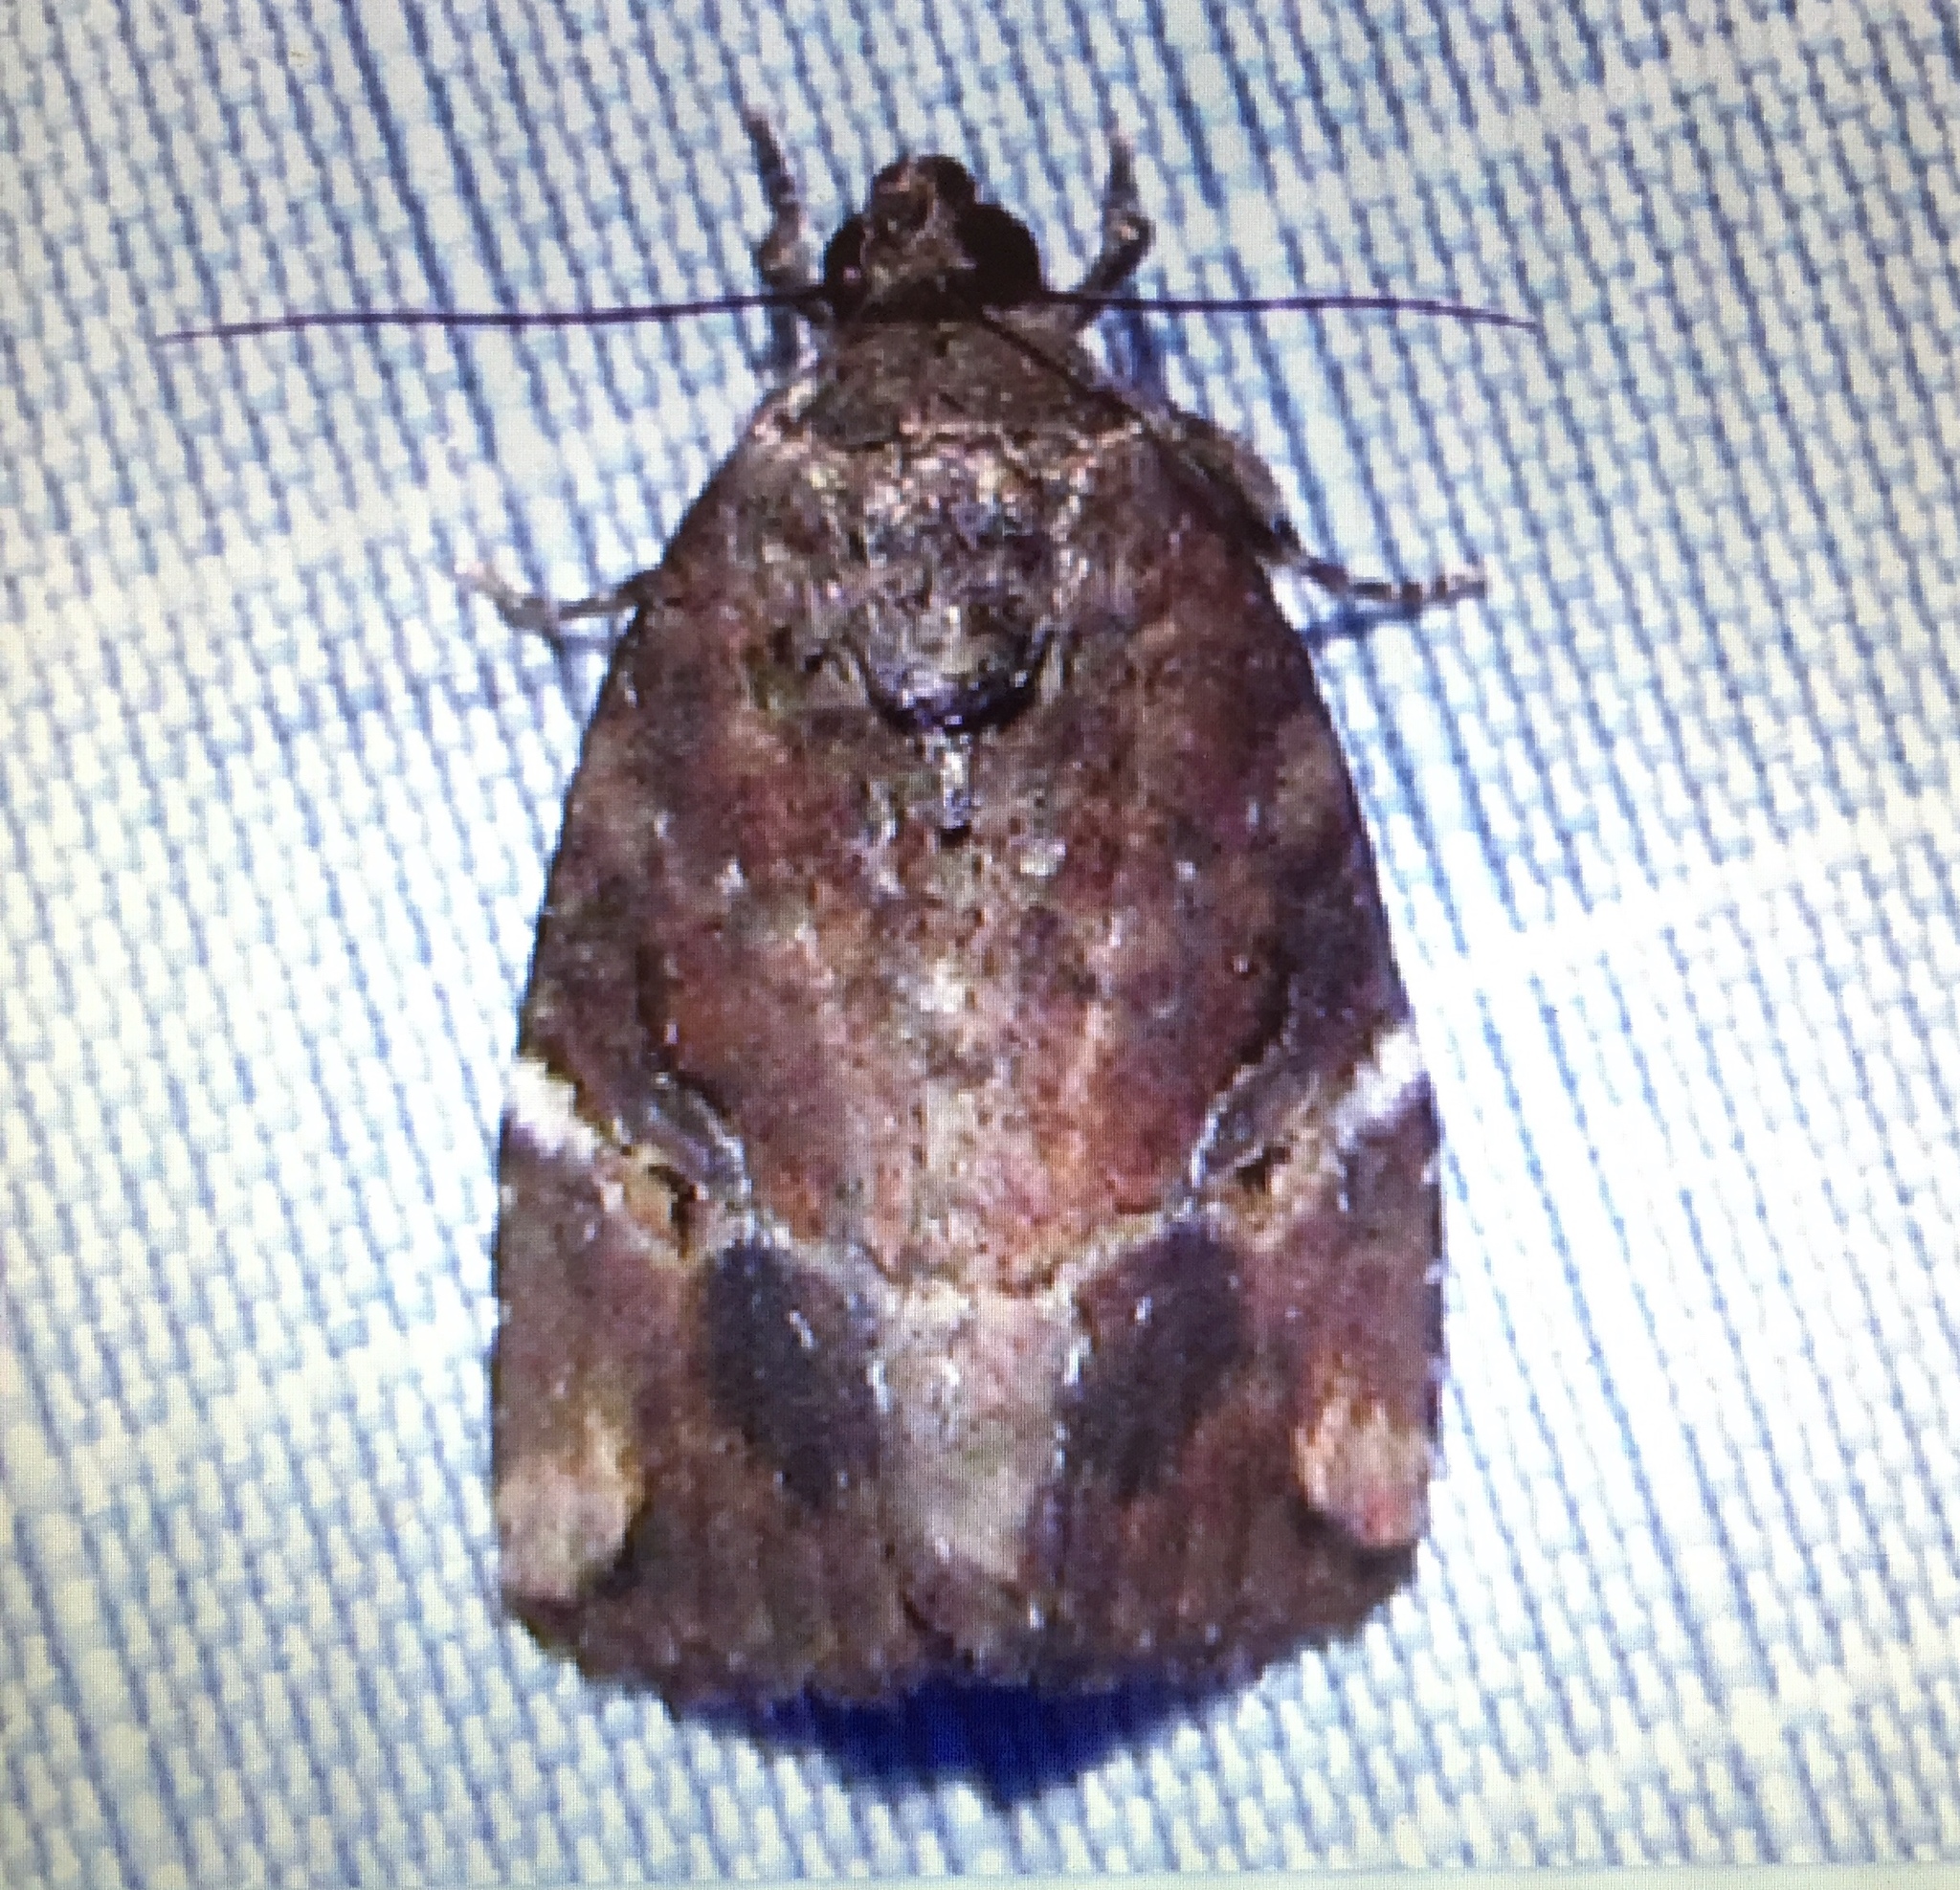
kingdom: Animalia
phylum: Arthropoda
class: Insecta
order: Lepidoptera
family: Noctuidae
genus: Elaphria
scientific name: Elaphria versicolor
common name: Fir harlequin
